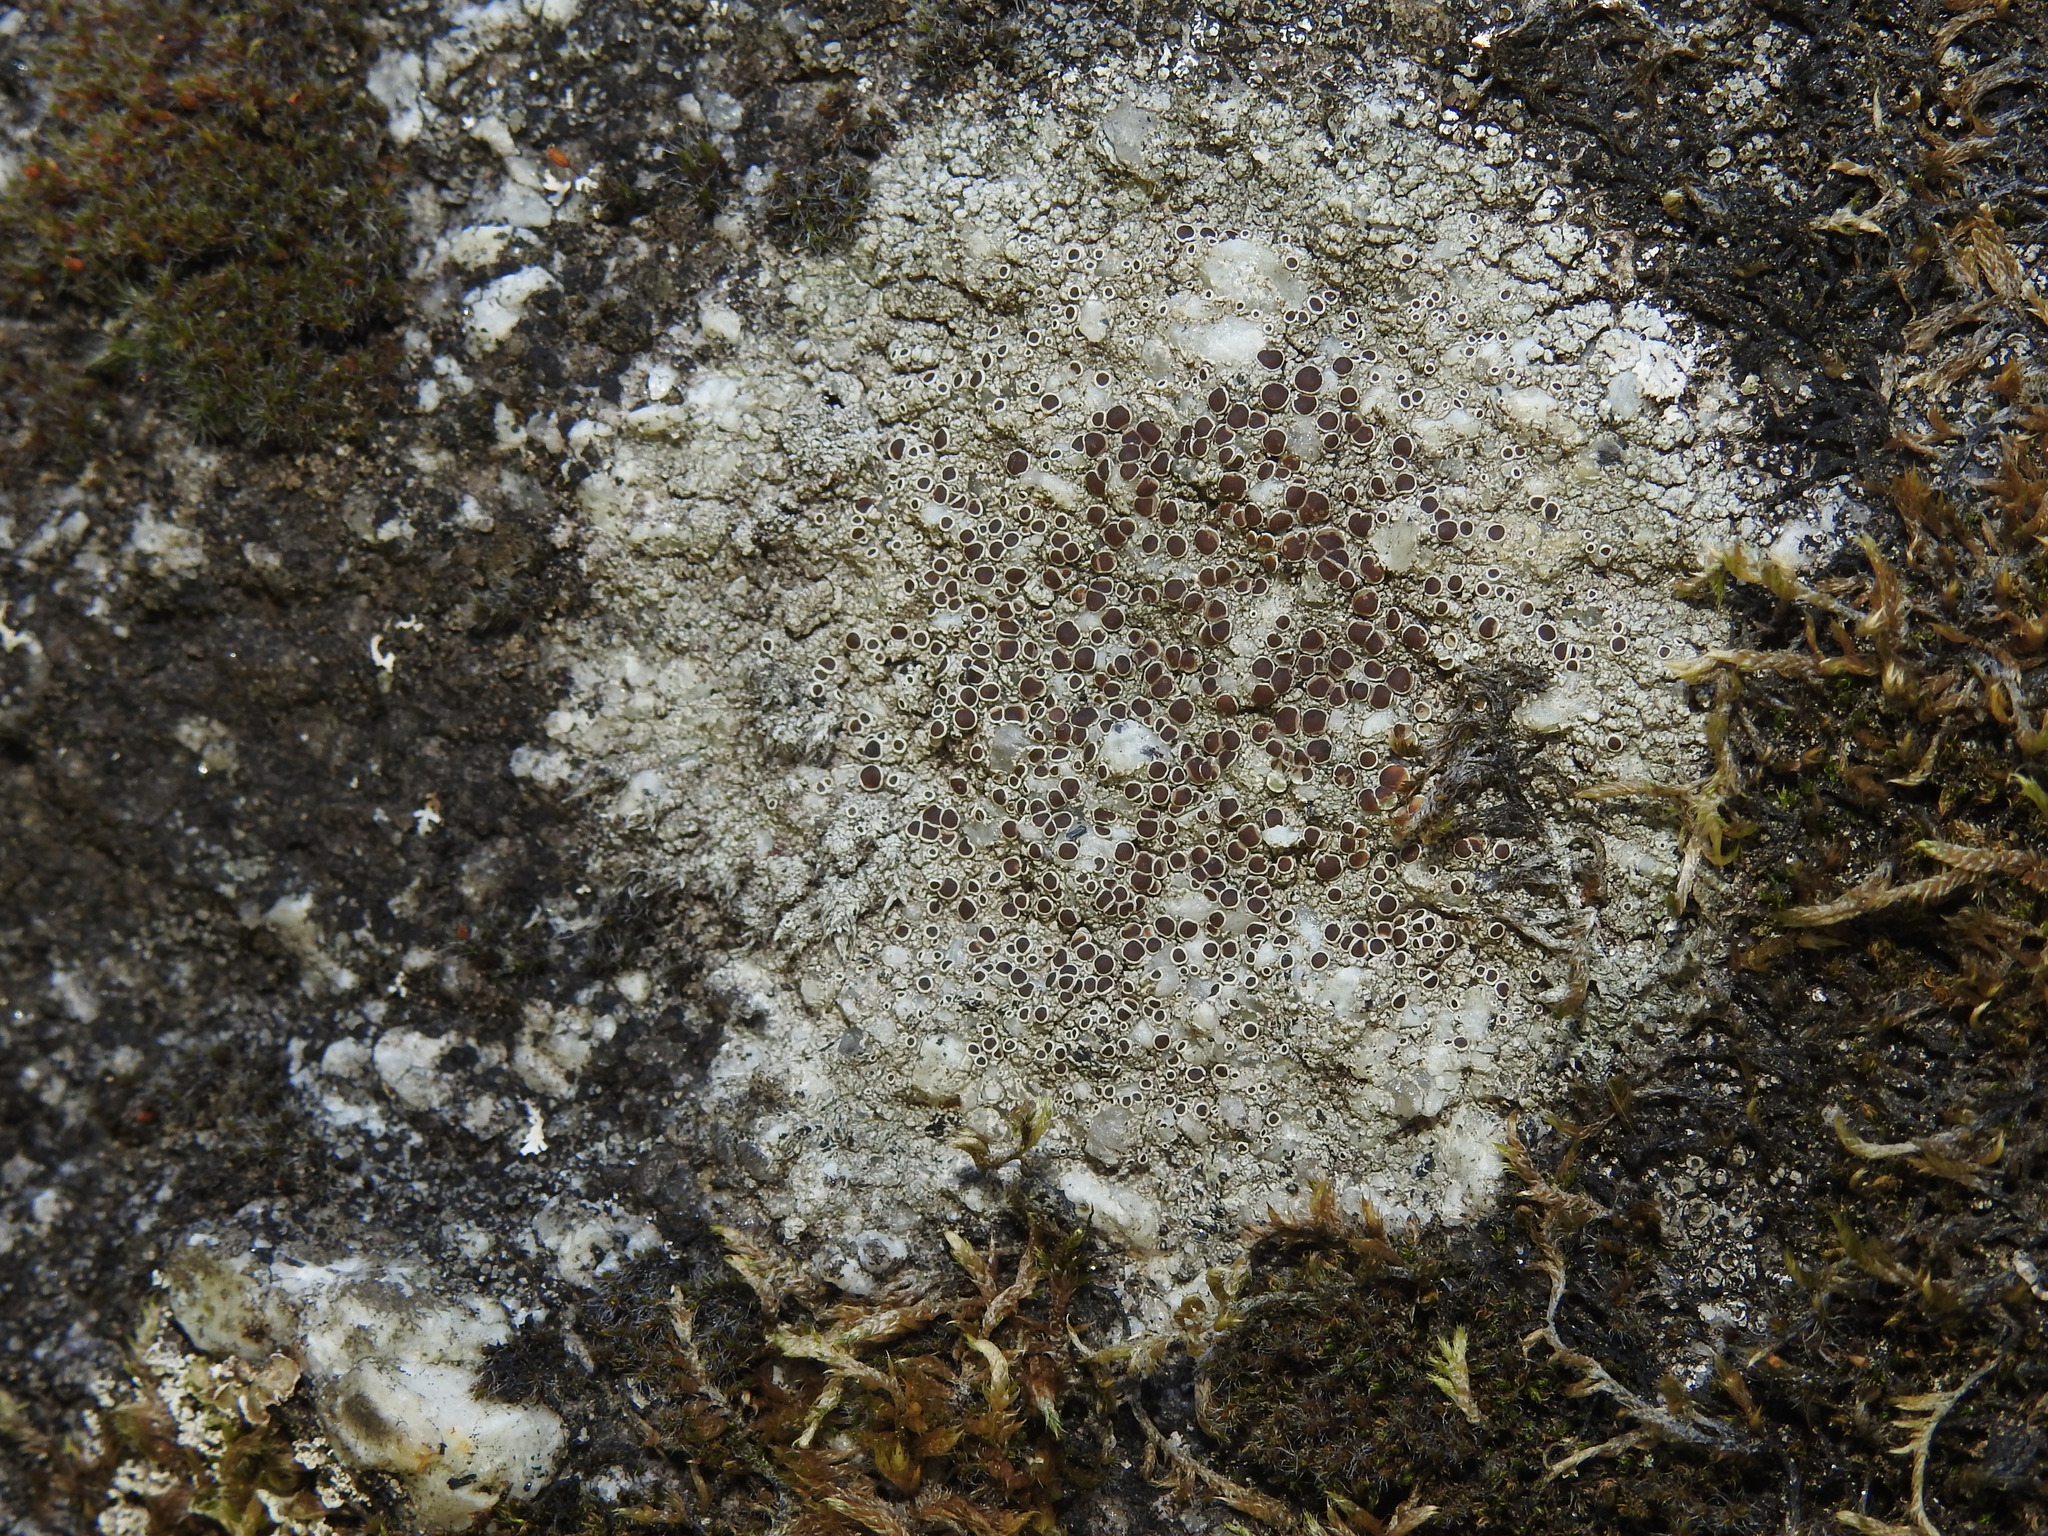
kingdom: Fungi
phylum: Ascomycota
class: Lecanoromycetes
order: Lecanorales
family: Lecanoraceae
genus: Lecanora
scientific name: Lecanora campestris
